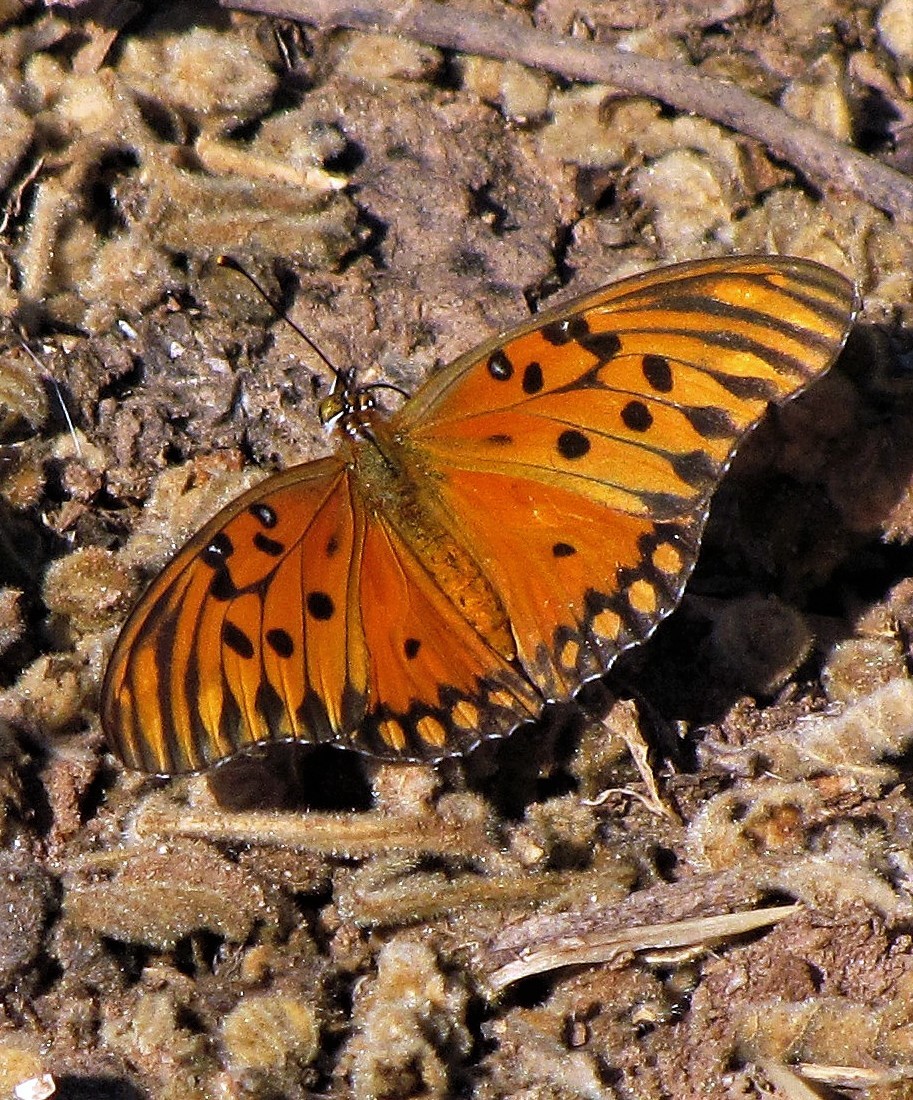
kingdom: Animalia
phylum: Arthropoda
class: Insecta
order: Lepidoptera
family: Nymphalidae
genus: Dione
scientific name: Dione vanillae
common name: Gulf fritillary
